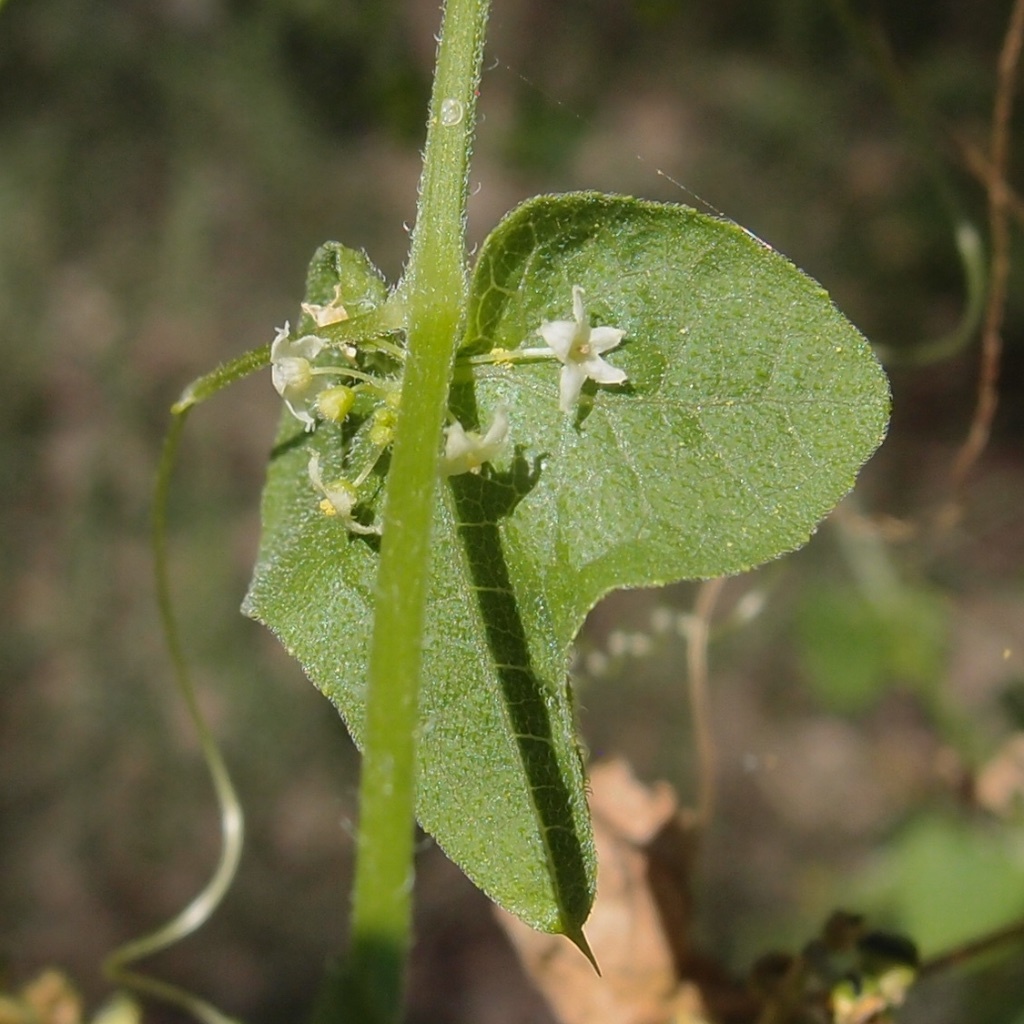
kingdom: Plantae
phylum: Tracheophyta
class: Magnoliopsida
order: Cucurbitales
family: Cucurbitaceae
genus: Sicyosperma
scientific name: Sicyosperma gracile
